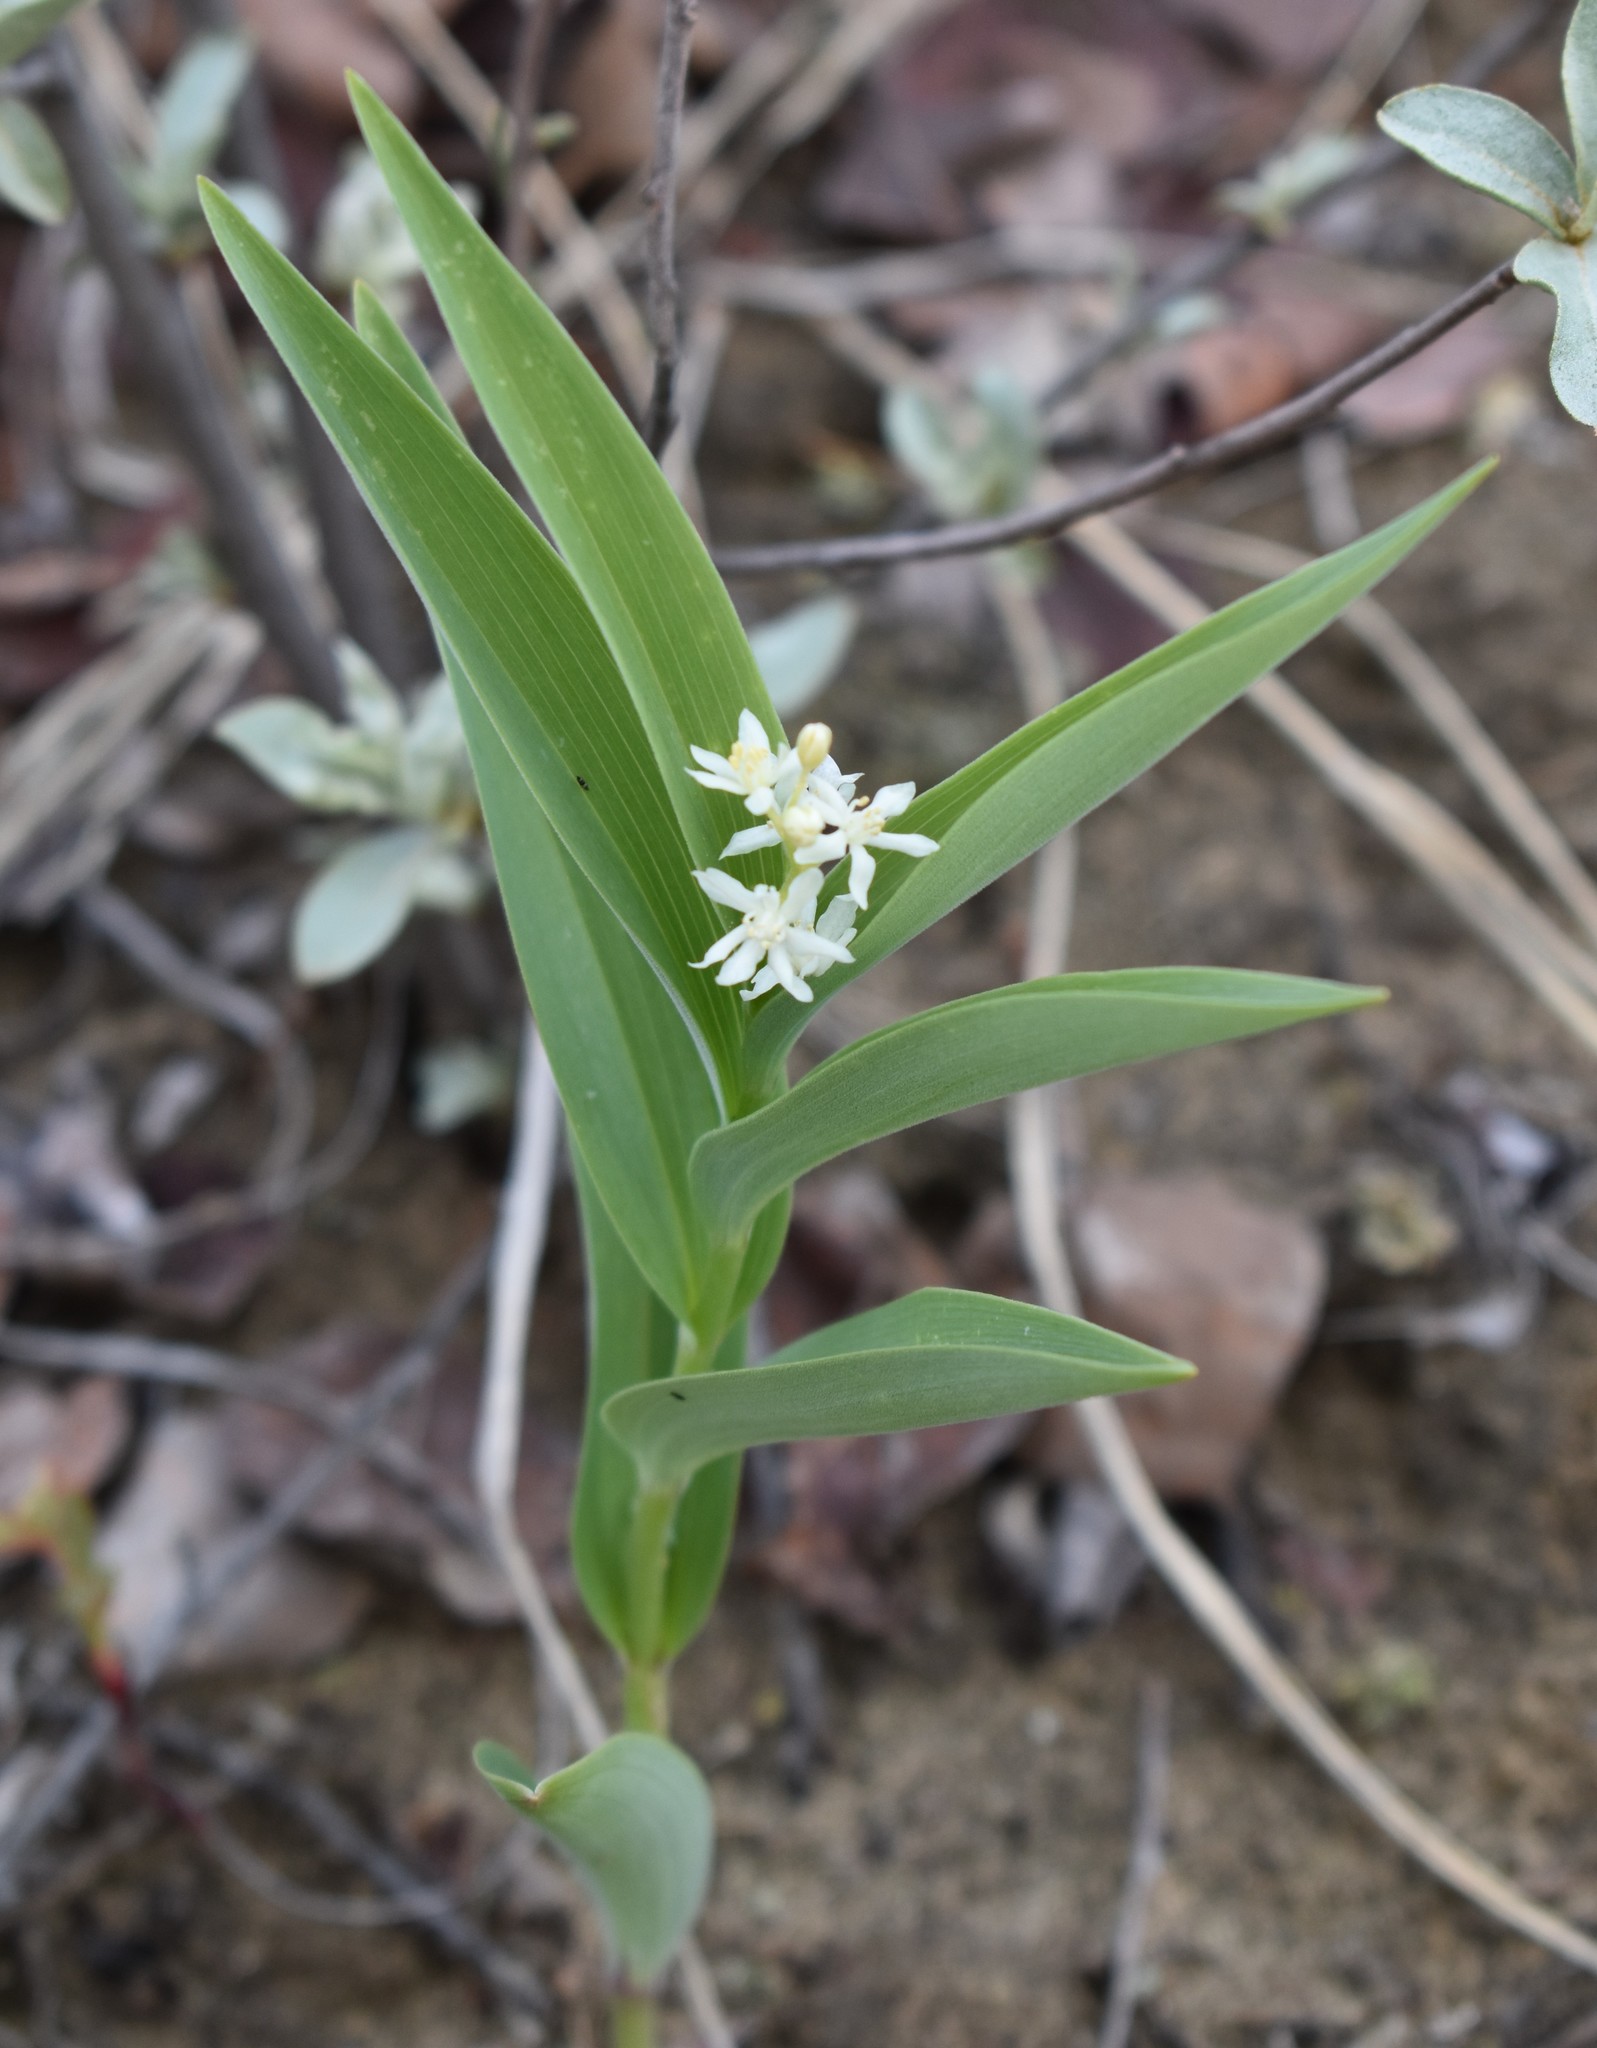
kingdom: Plantae
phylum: Tracheophyta
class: Liliopsida
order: Asparagales
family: Asparagaceae
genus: Maianthemum
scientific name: Maianthemum stellatum
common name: Little false solomon's seal
